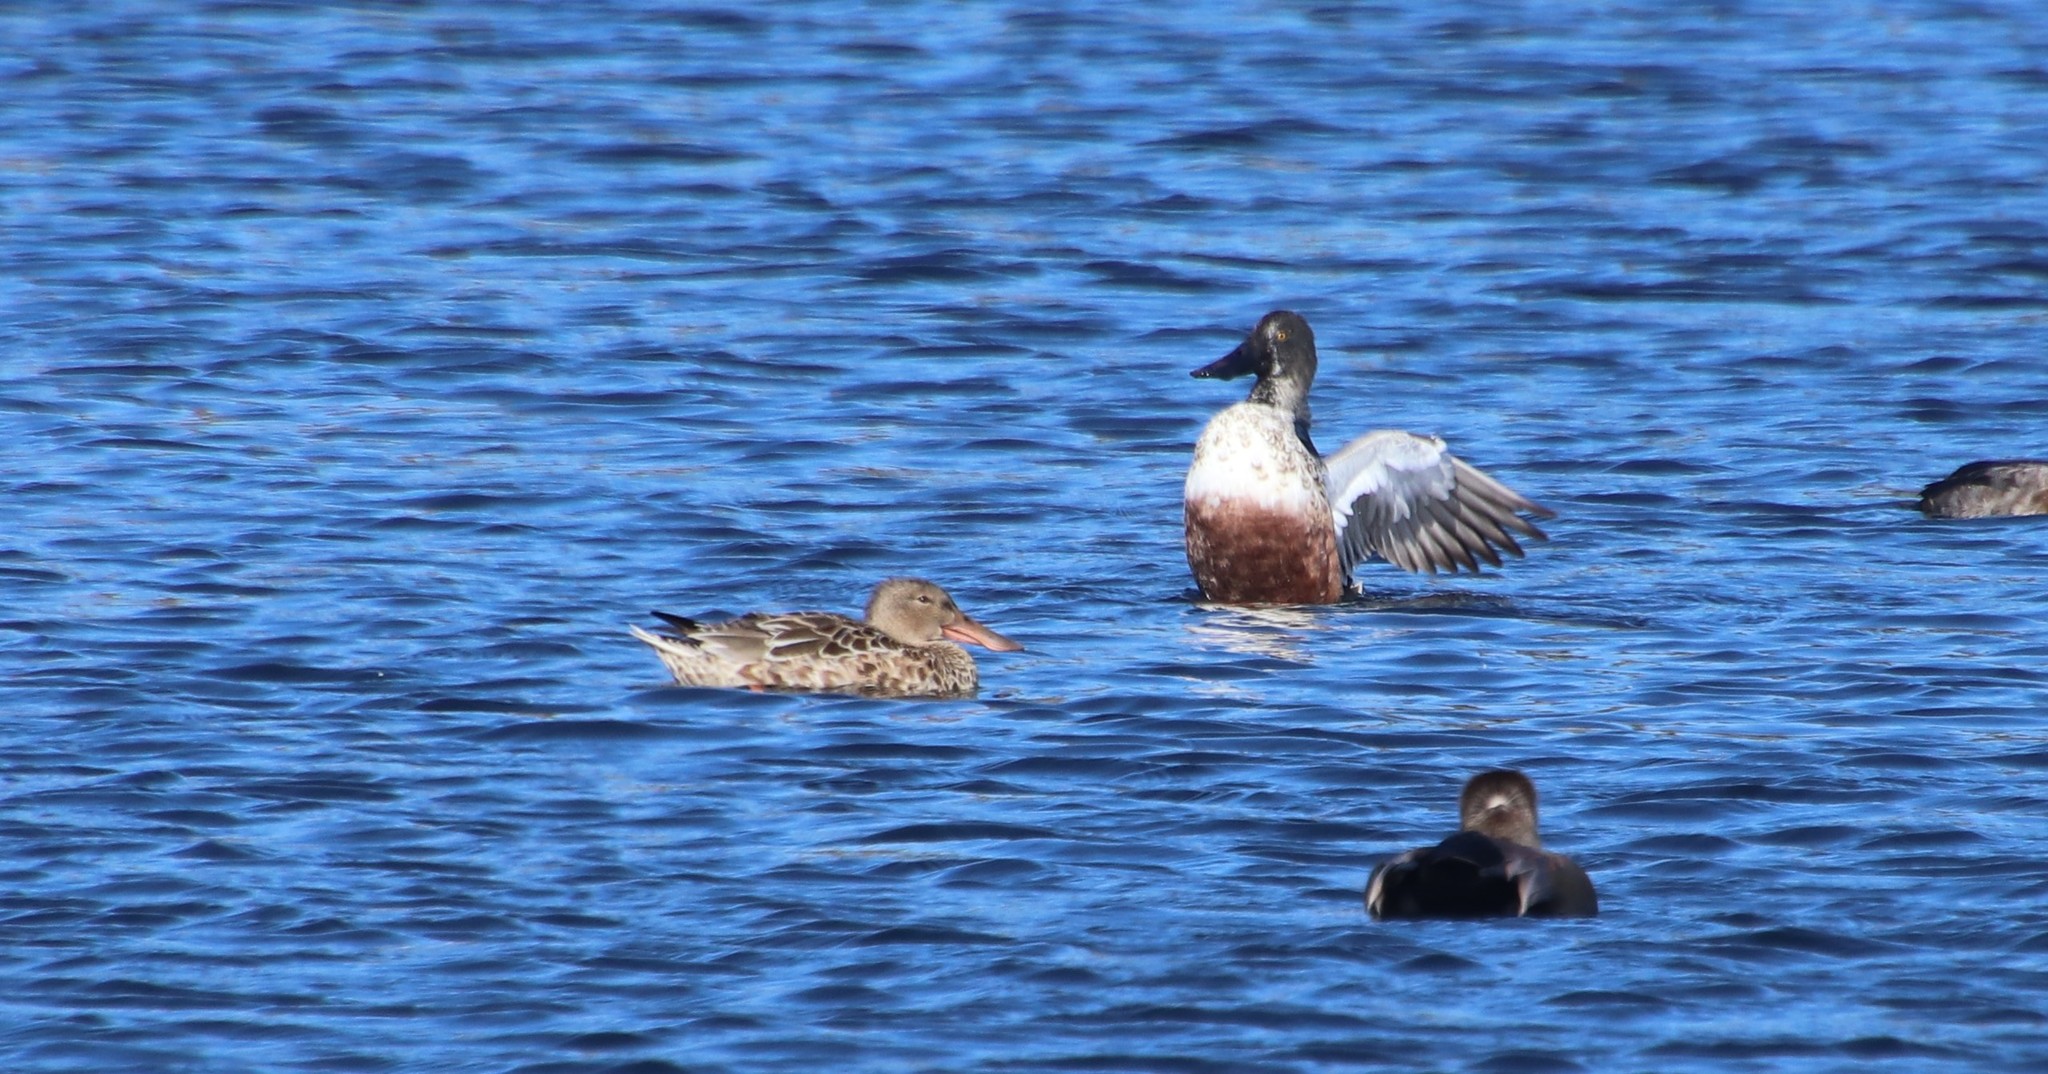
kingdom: Animalia
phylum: Chordata
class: Aves
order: Anseriformes
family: Anatidae
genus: Spatula
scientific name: Spatula clypeata
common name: Northern shoveler
